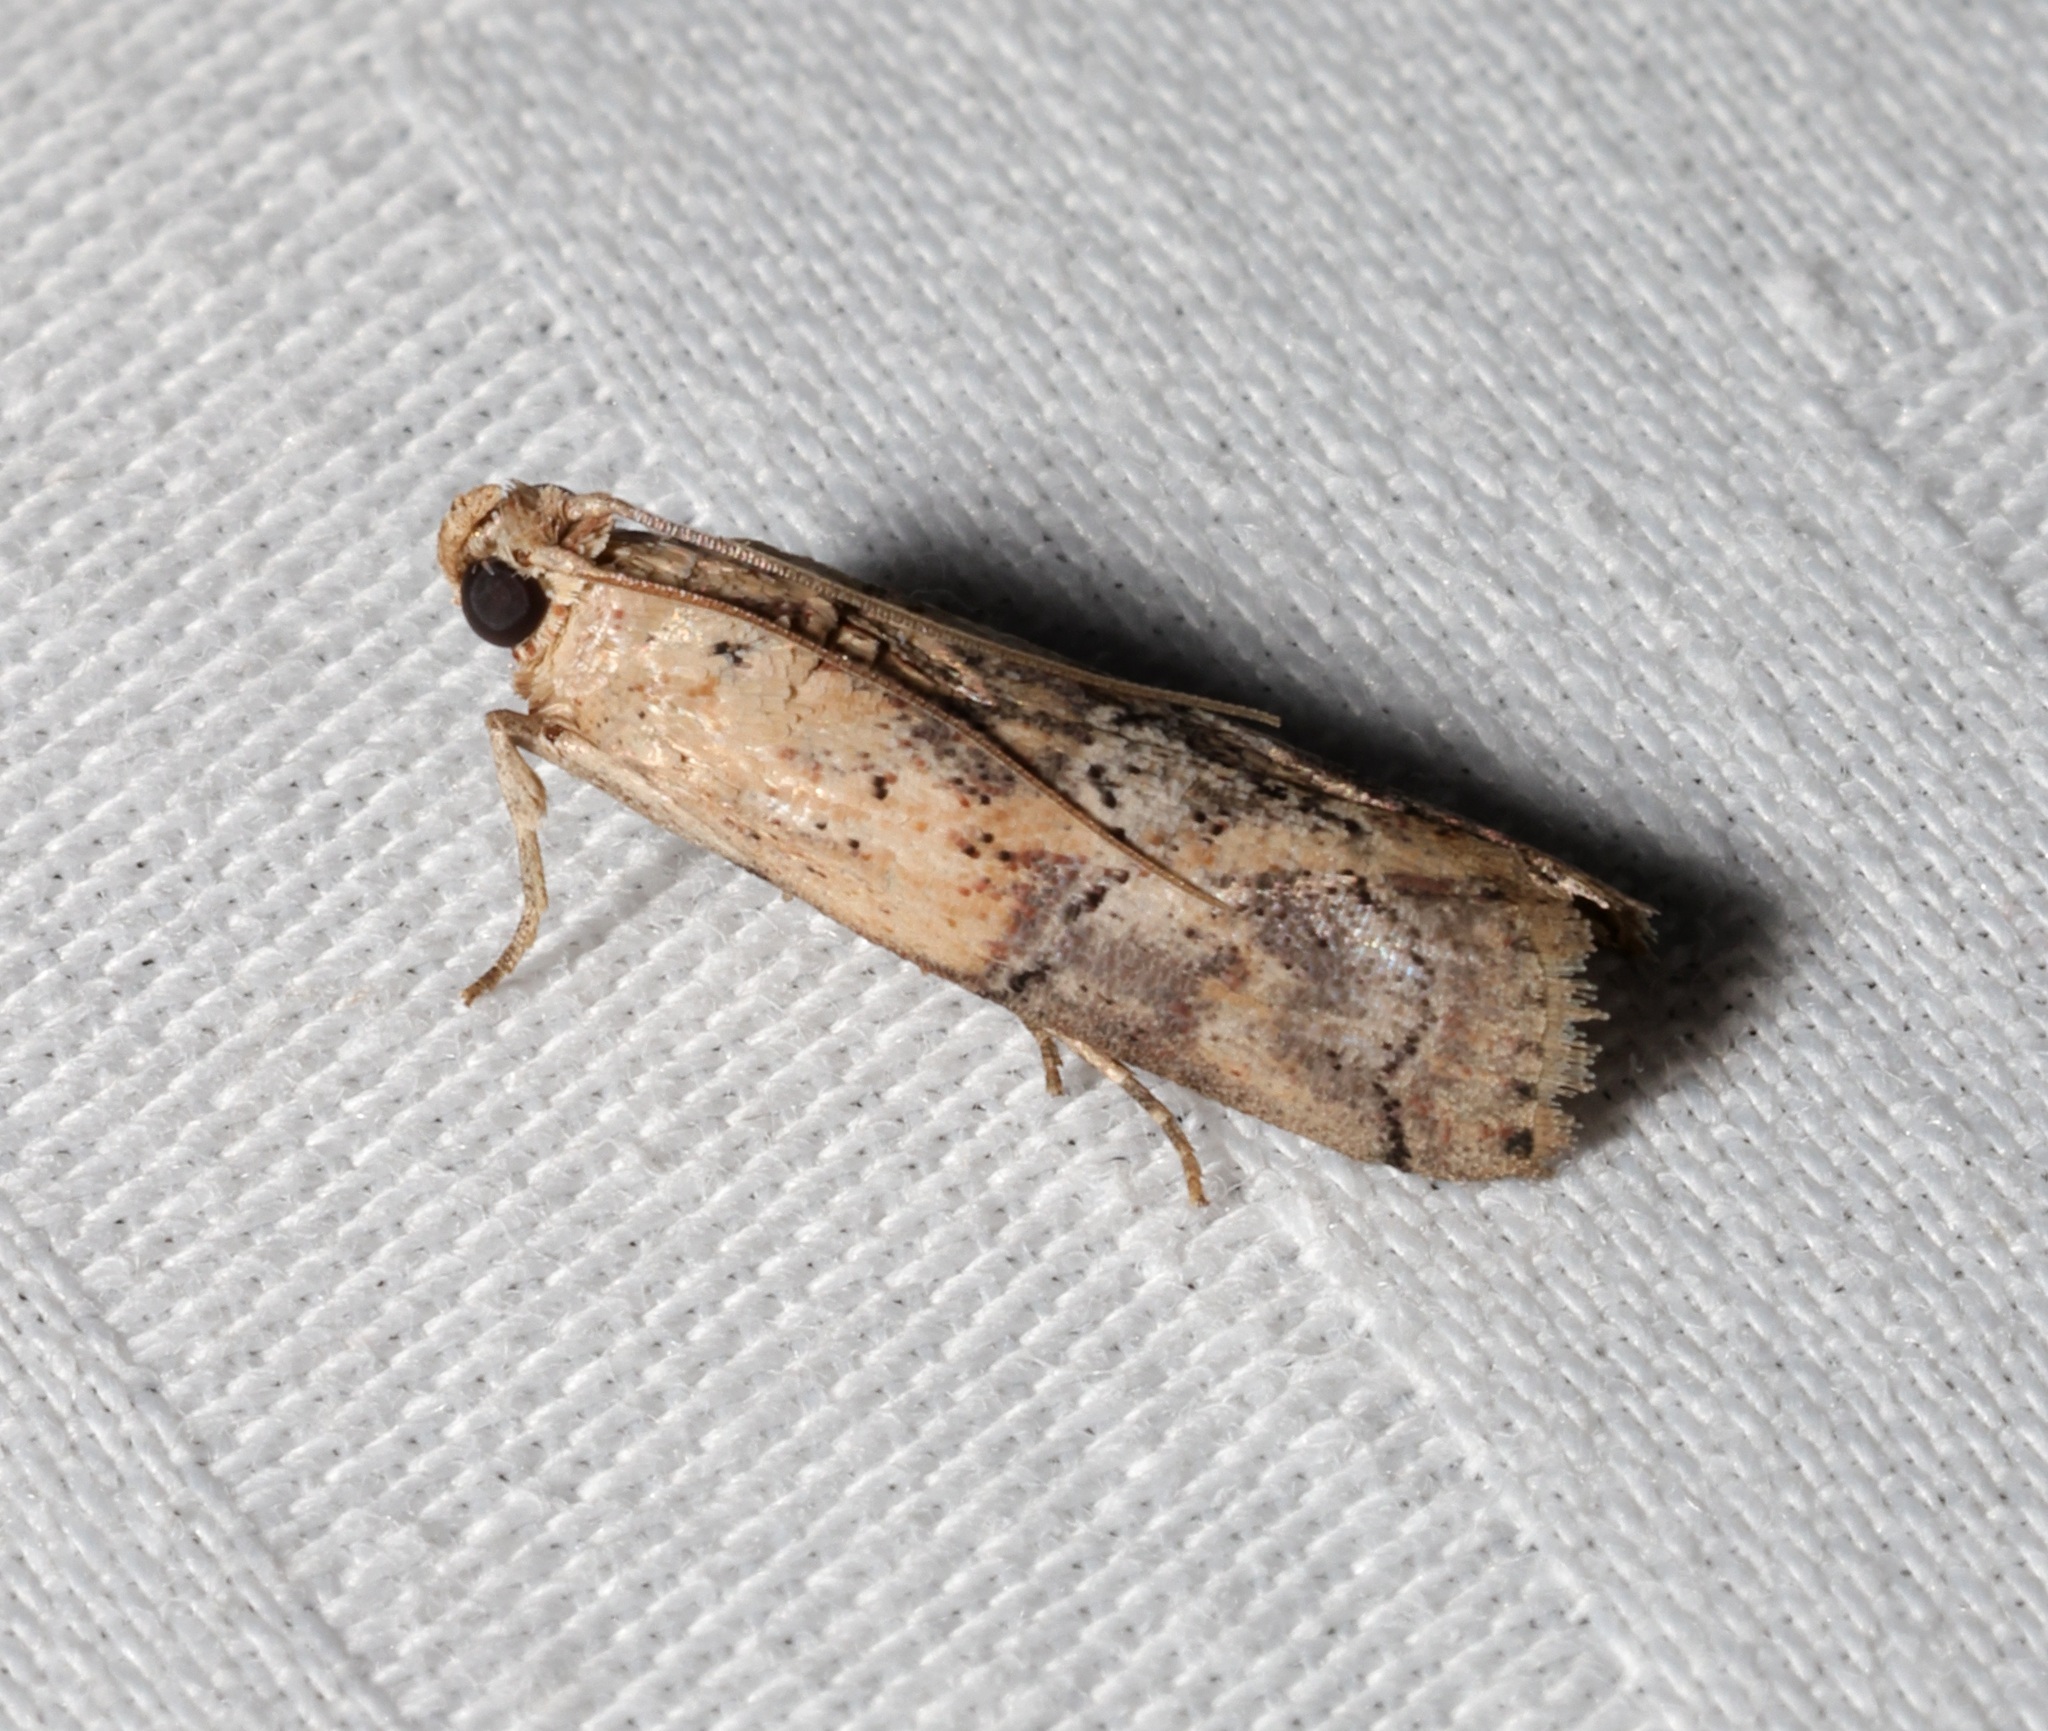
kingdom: Animalia
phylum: Arthropoda
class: Insecta
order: Lepidoptera
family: Pyralidae
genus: Nephopterix
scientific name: Nephopterix ochribasalis
